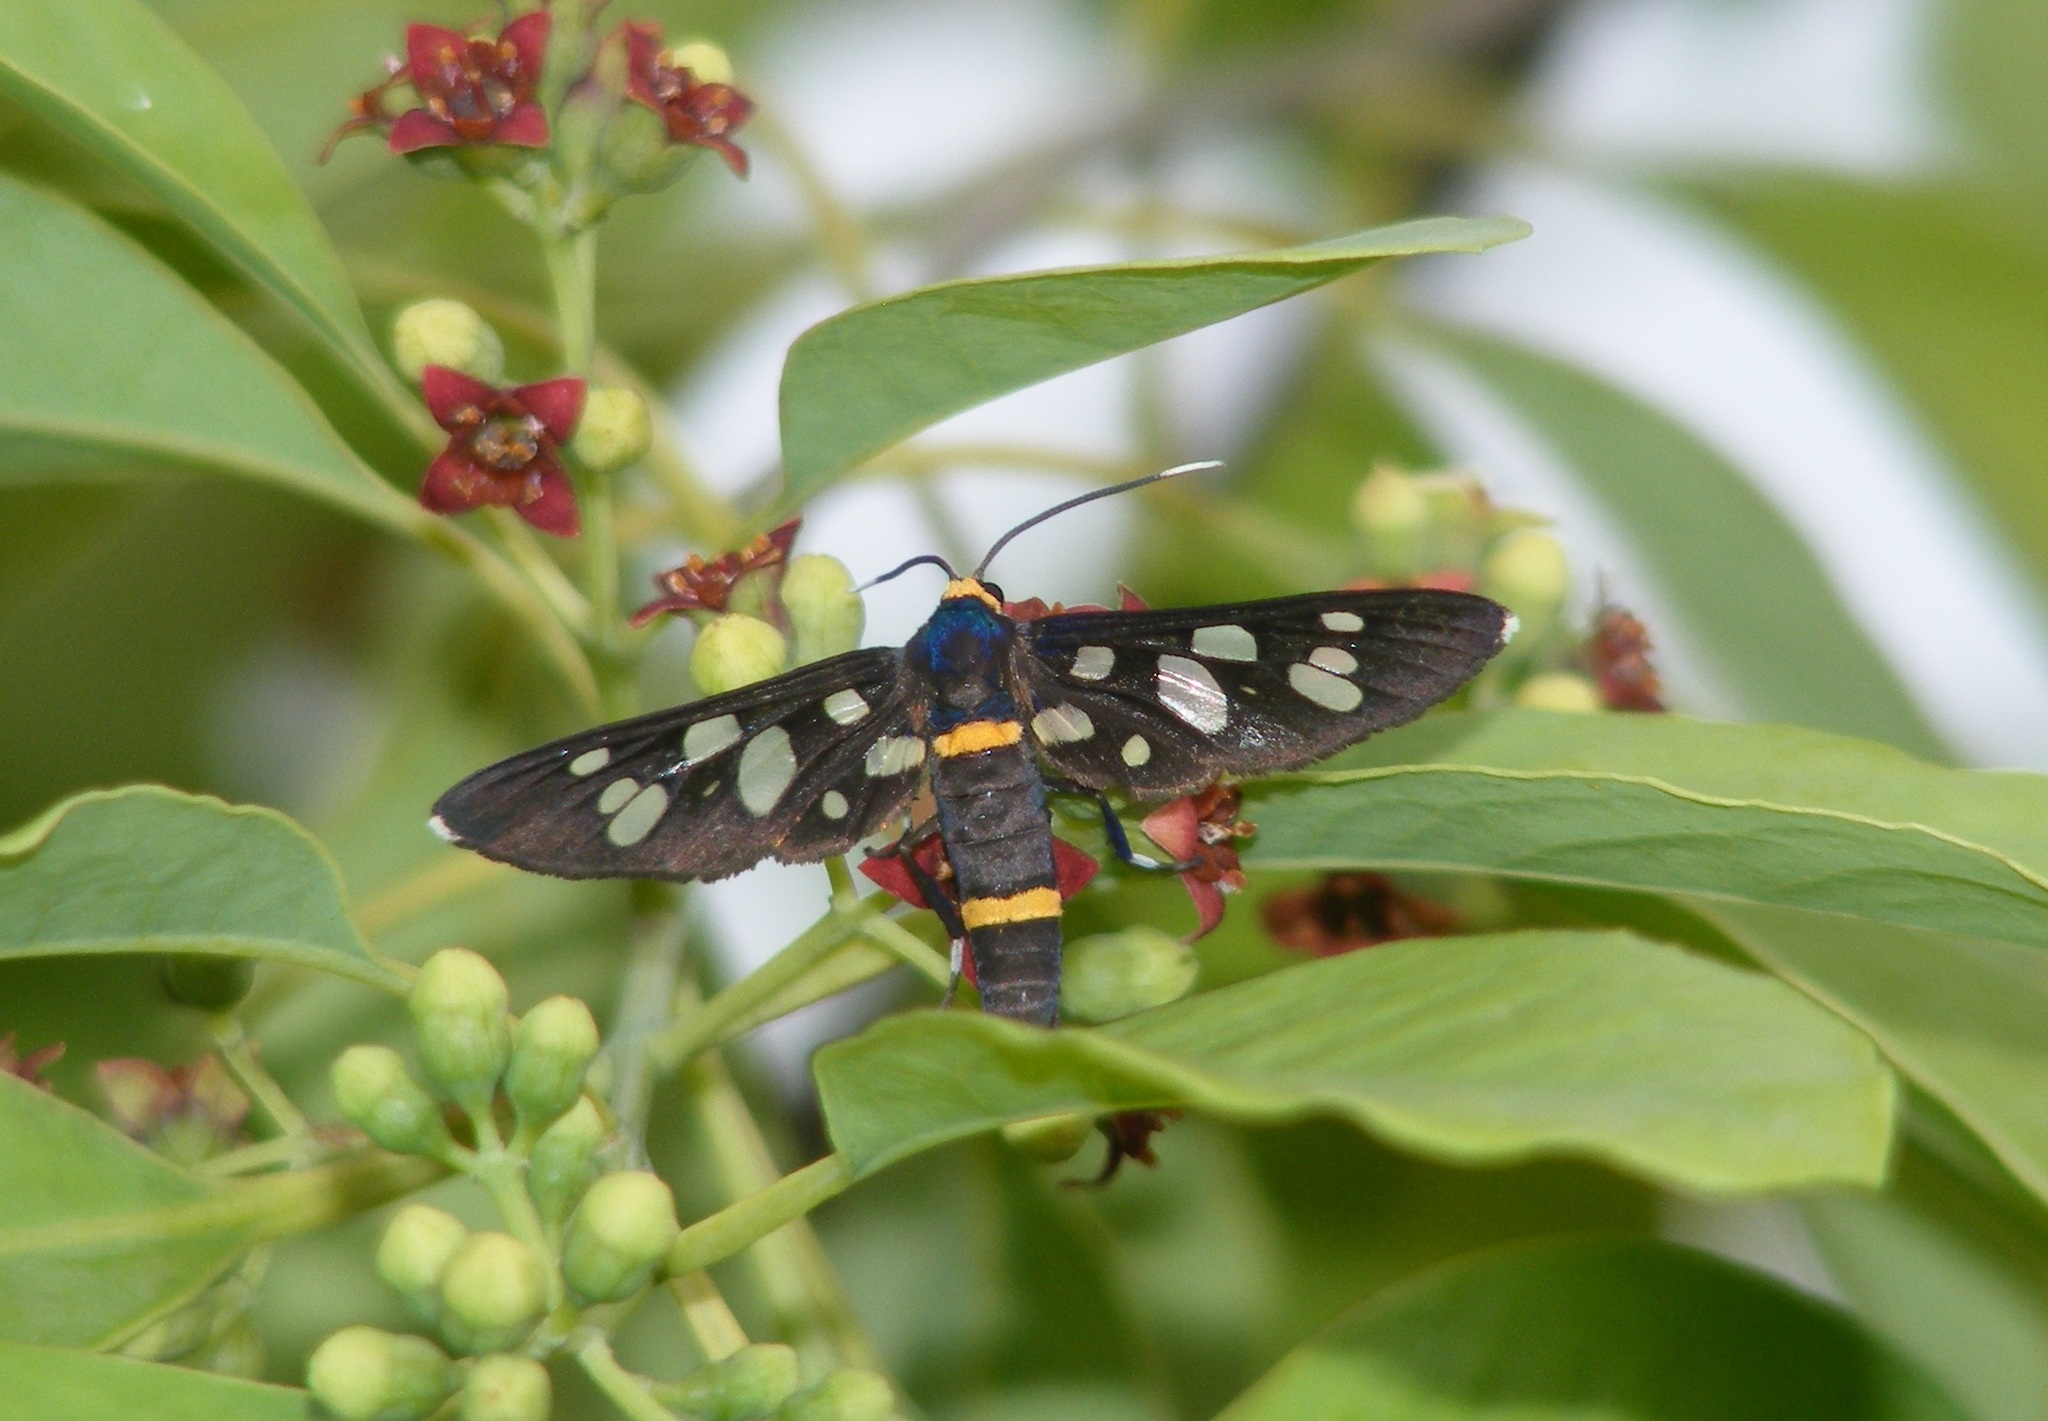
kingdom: Animalia
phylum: Arthropoda
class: Insecta
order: Lepidoptera
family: Erebidae
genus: Amata
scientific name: Amata cyssea
